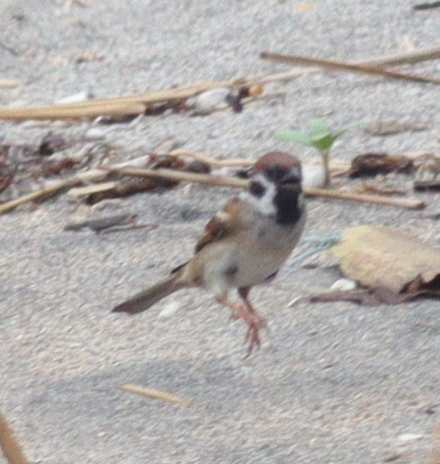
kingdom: Animalia
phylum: Chordata
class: Aves
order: Passeriformes
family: Passeridae
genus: Passer
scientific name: Passer montanus
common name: Eurasian tree sparrow
